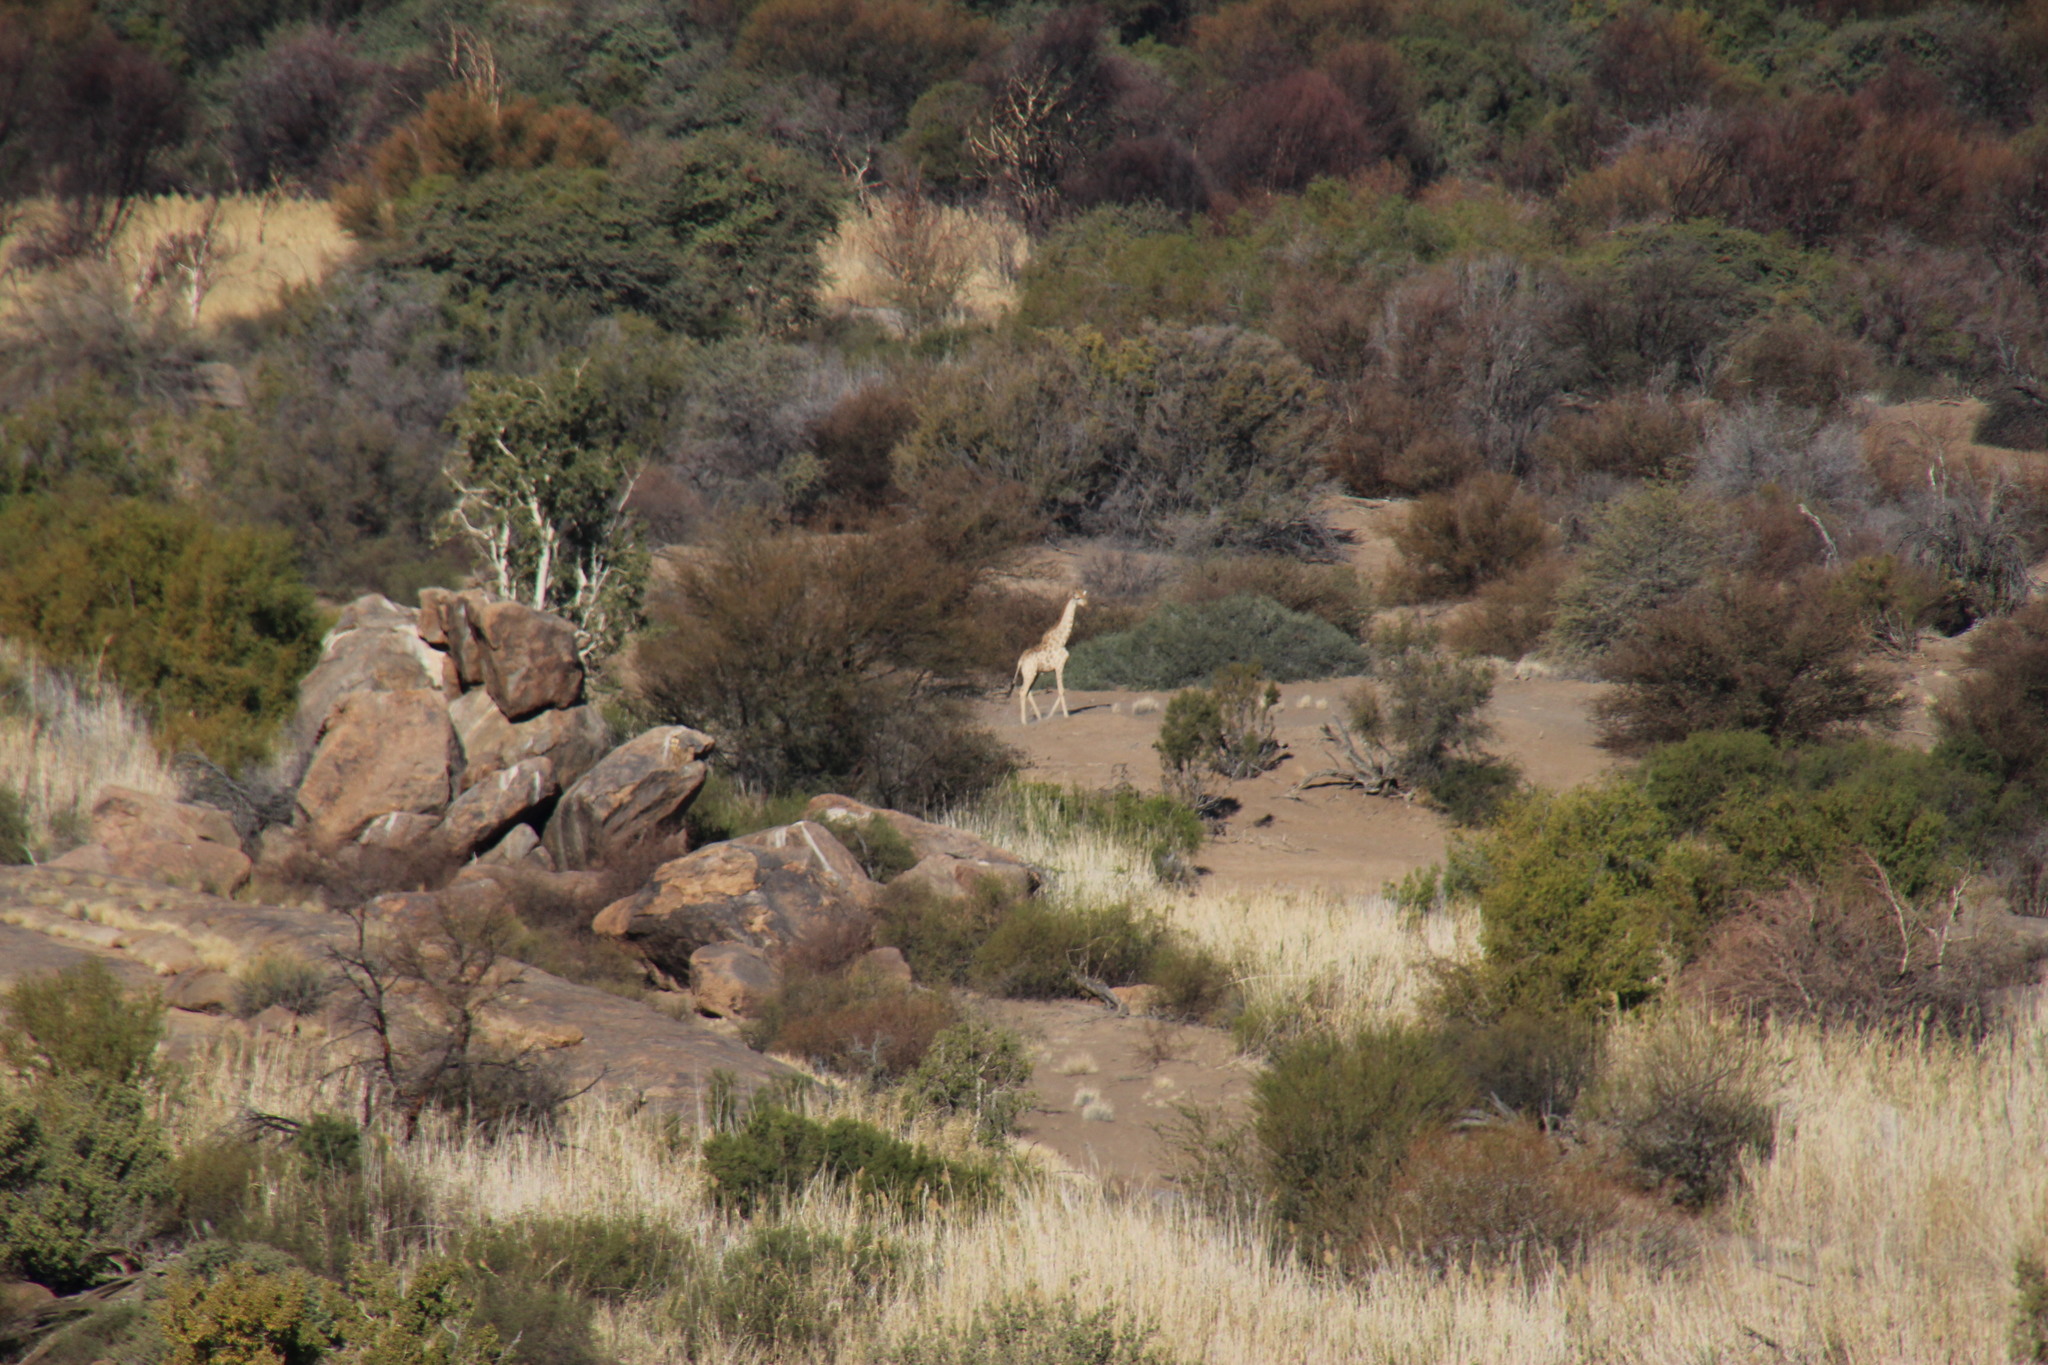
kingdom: Animalia
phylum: Chordata
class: Mammalia
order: Artiodactyla
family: Giraffidae
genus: Giraffa
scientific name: Giraffa giraffa
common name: Southern giraffe
